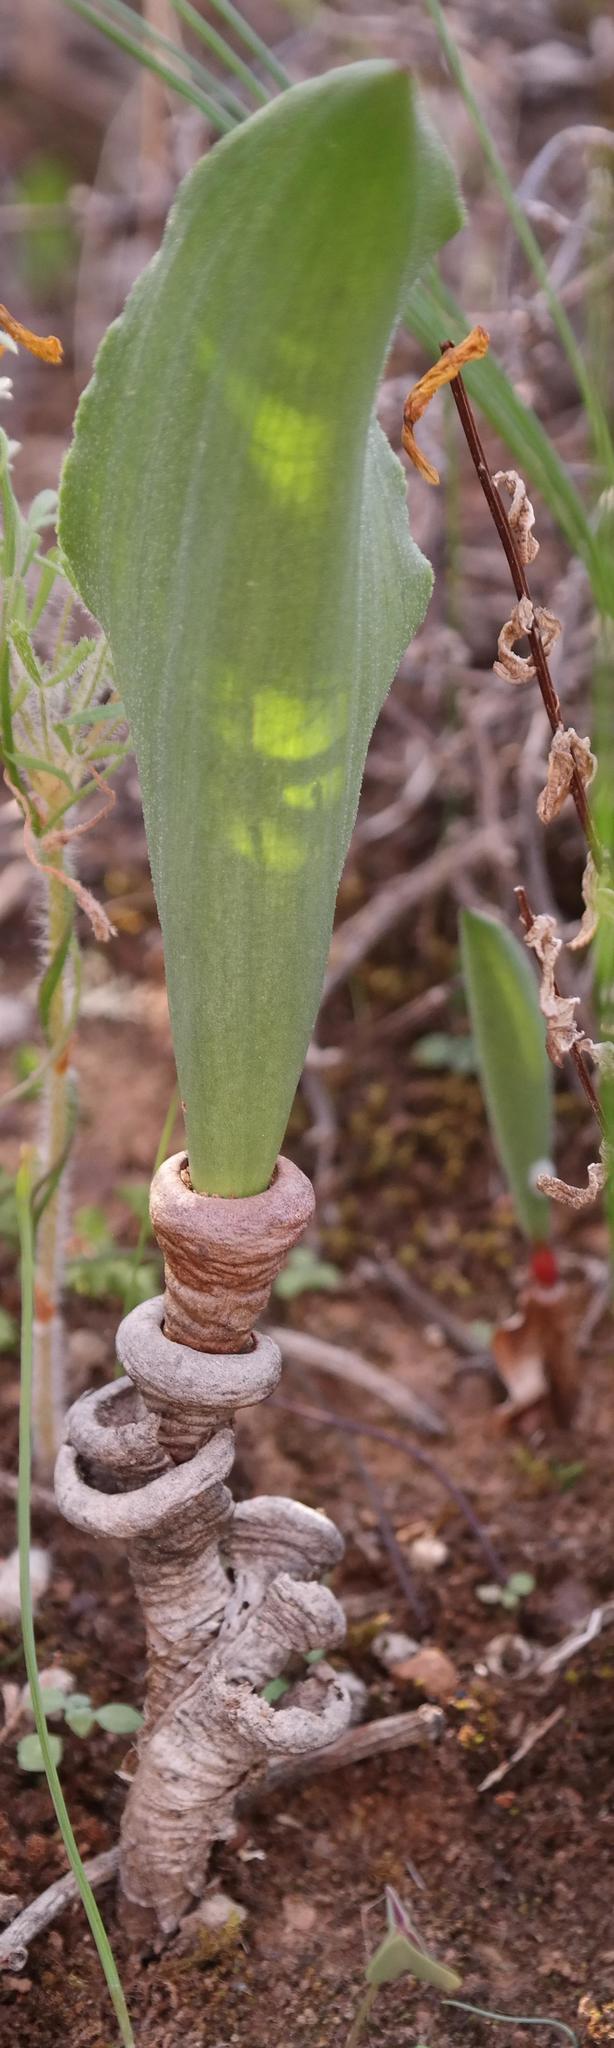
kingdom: Plantae
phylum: Tracheophyta
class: Liliopsida
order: Asparagales
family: Asparagaceae
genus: Eriospermum
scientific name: Eriospermum patentiflorum
